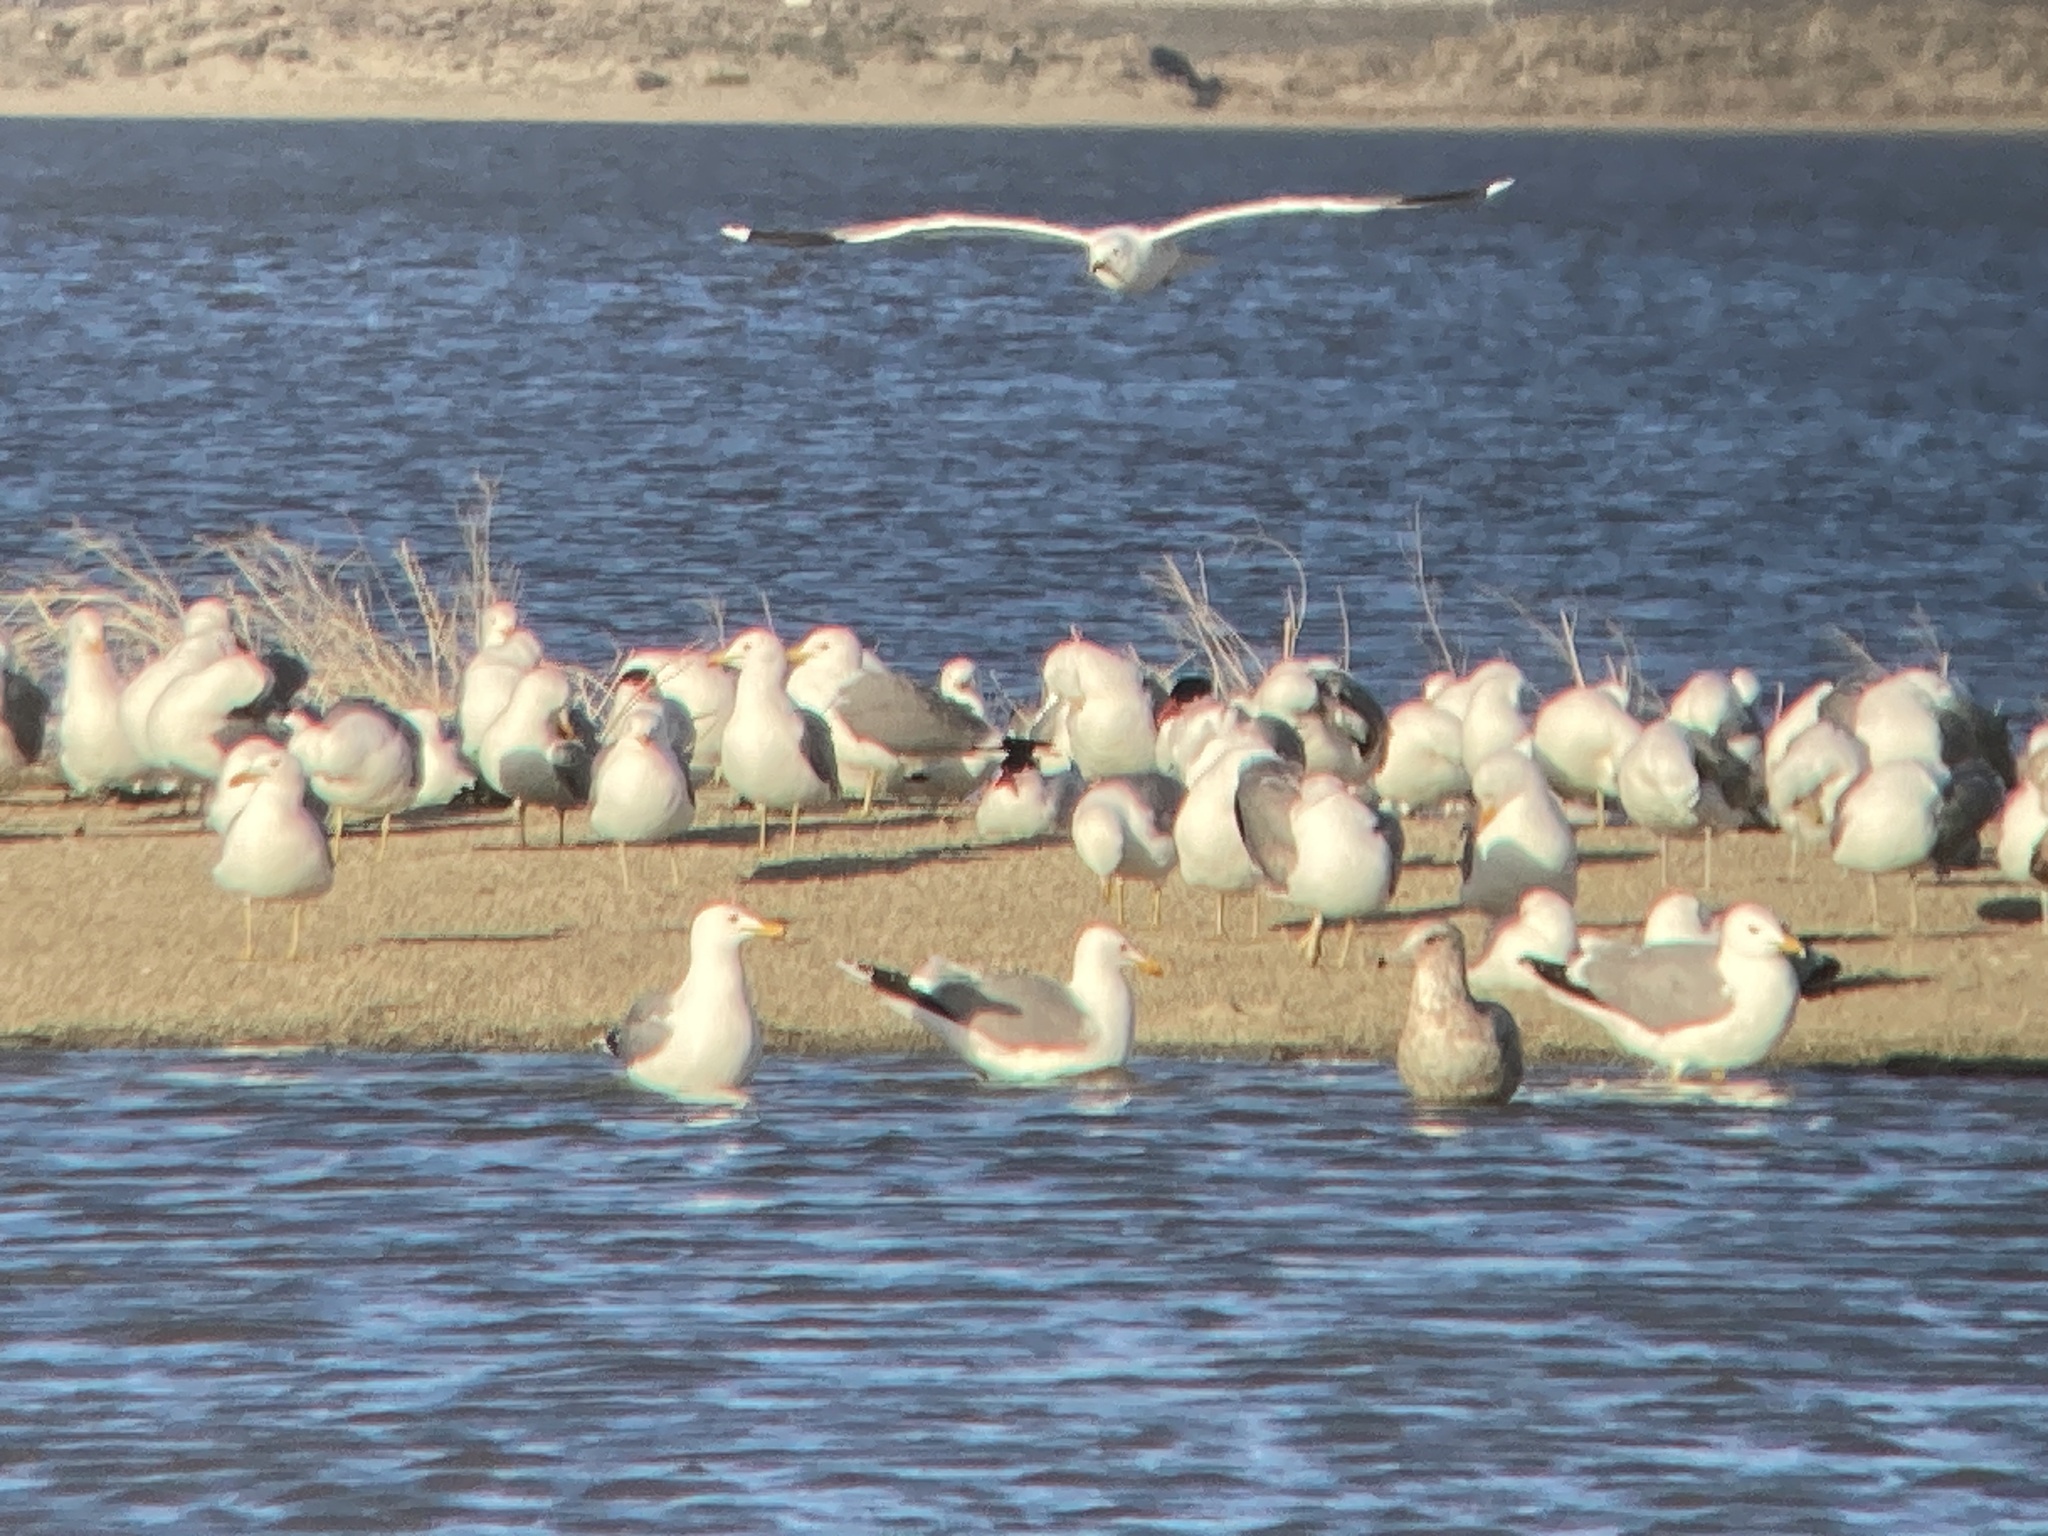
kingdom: Animalia
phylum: Chordata
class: Aves
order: Charadriiformes
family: Laridae
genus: Larus
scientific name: Larus californicus
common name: California gull
